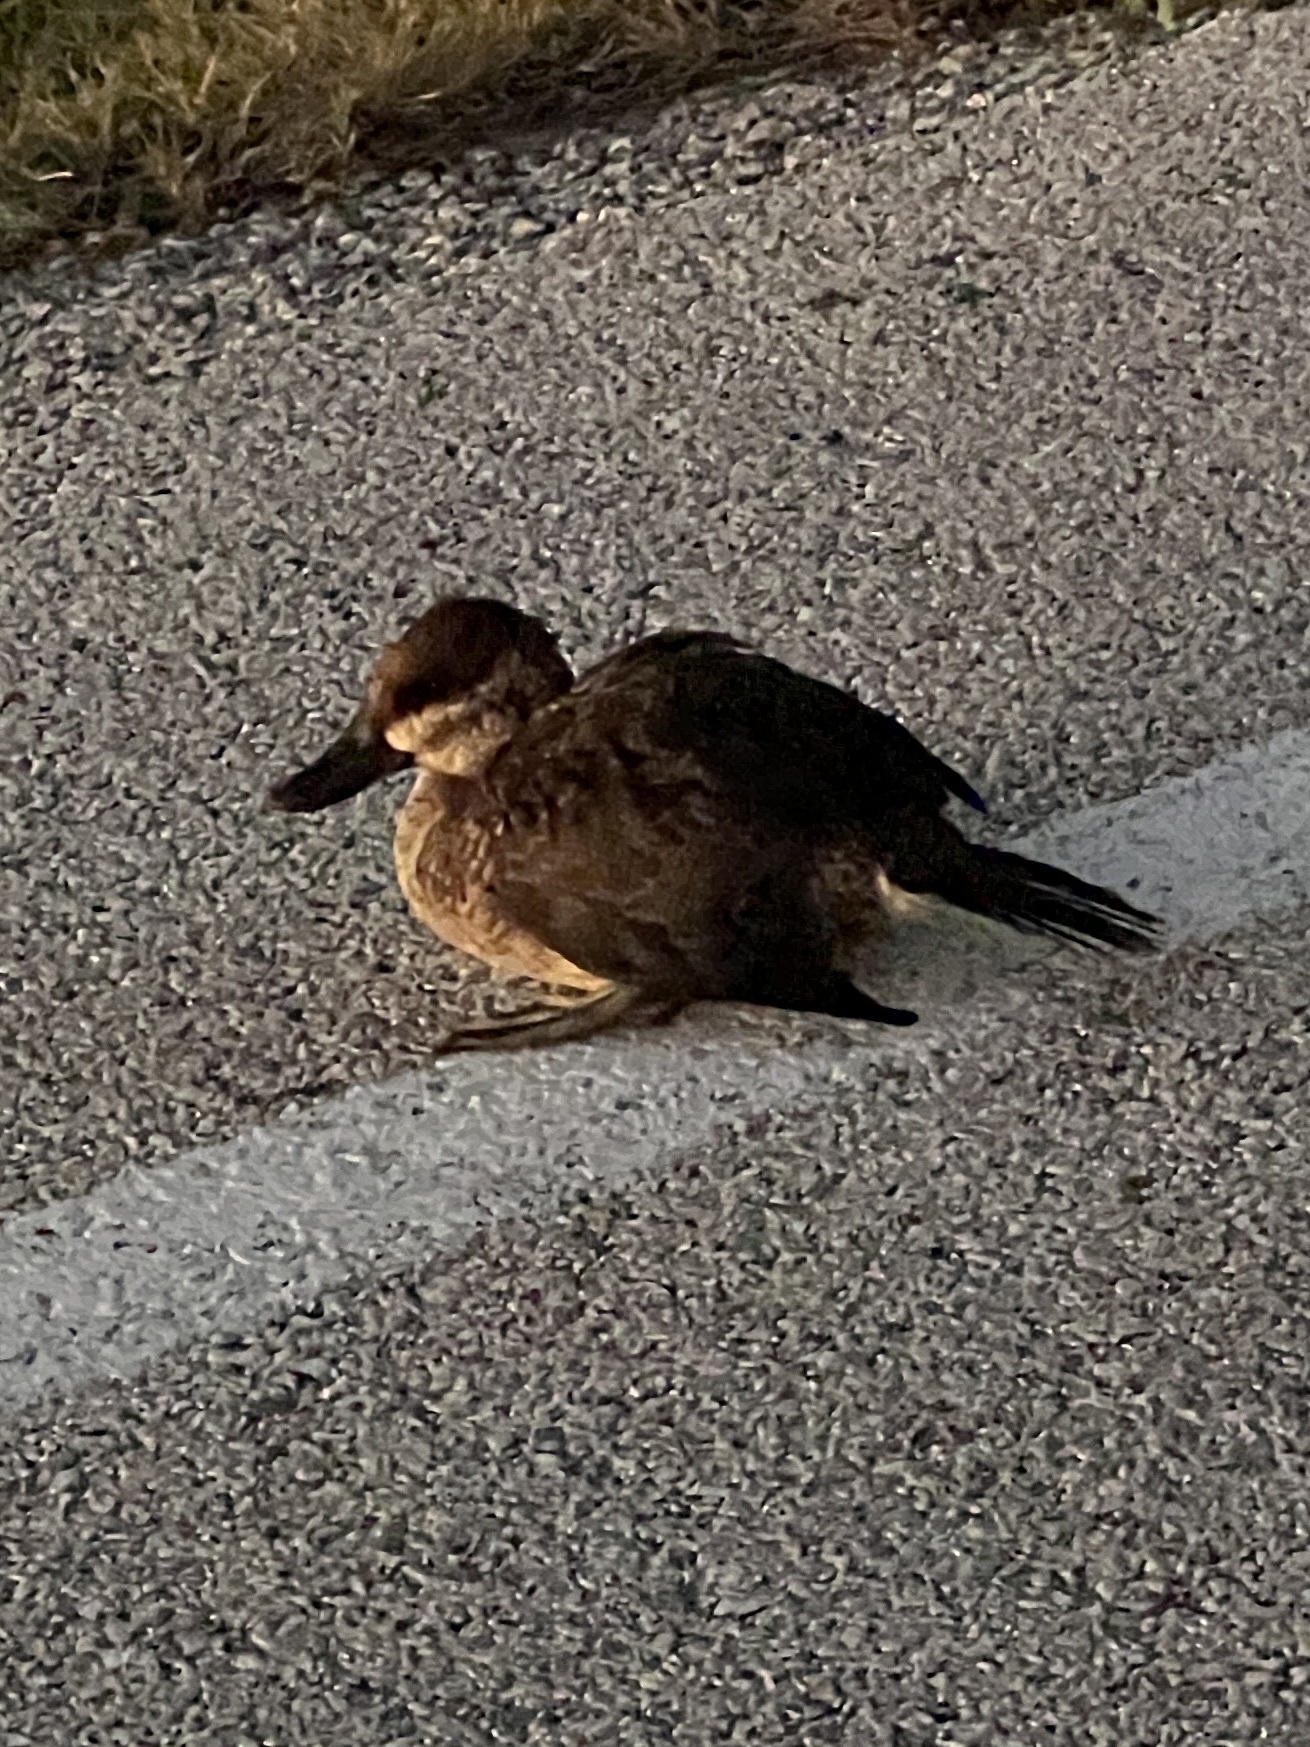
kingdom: Animalia
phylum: Chordata
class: Aves
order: Anseriformes
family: Anatidae
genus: Oxyura
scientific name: Oxyura jamaicensis
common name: Ruddy duck
